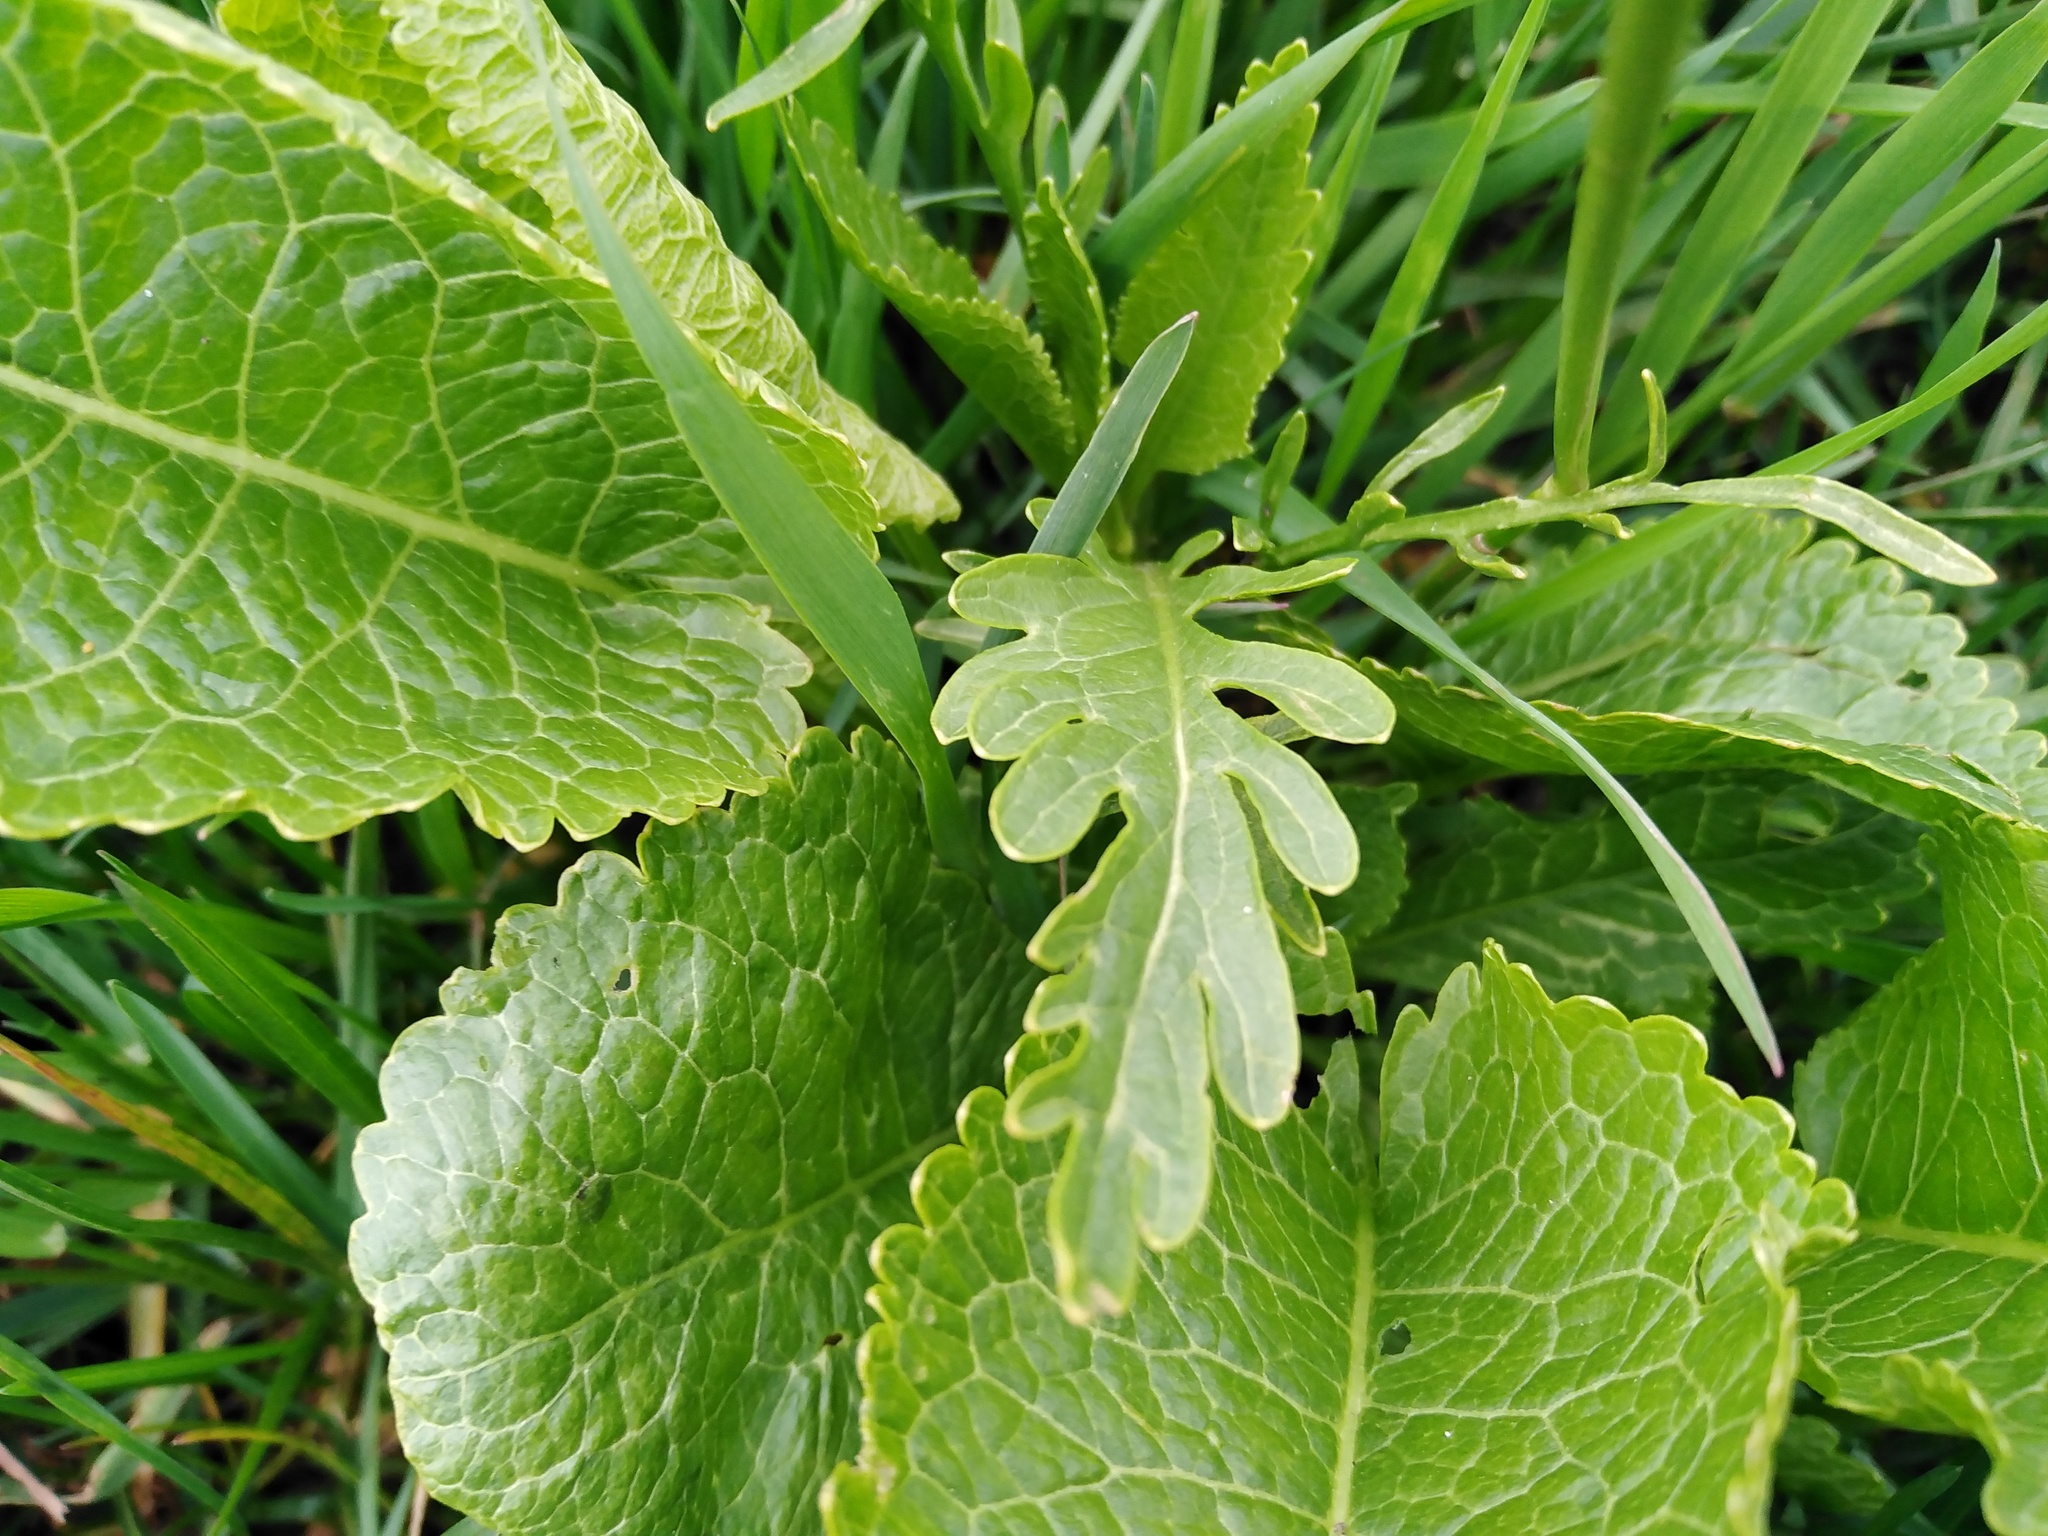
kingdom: Plantae
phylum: Tracheophyta
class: Magnoliopsida
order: Brassicales
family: Brassicaceae
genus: Armoracia
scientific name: Armoracia rusticana
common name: Horseradish
